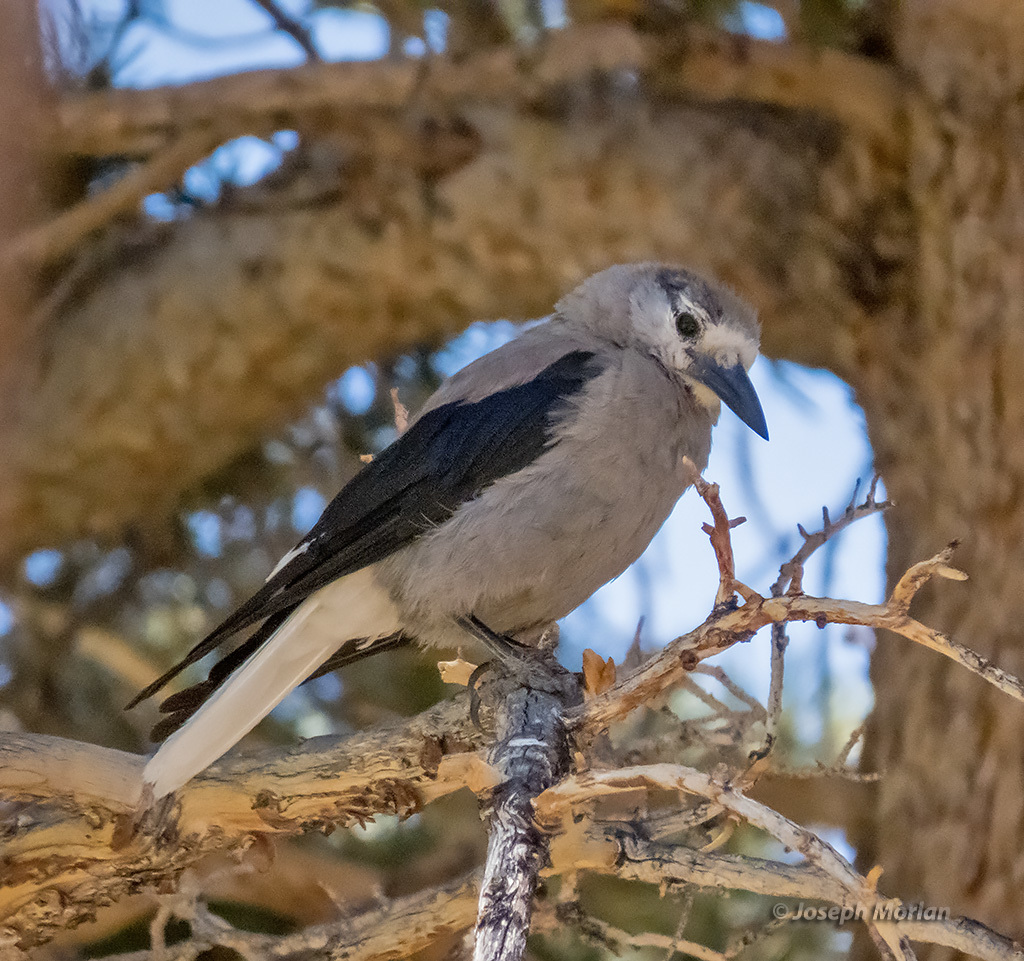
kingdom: Animalia
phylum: Chordata
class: Aves
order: Passeriformes
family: Corvidae
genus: Nucifraga
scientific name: Nucifraga columbiana
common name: Clark's nutcracker
